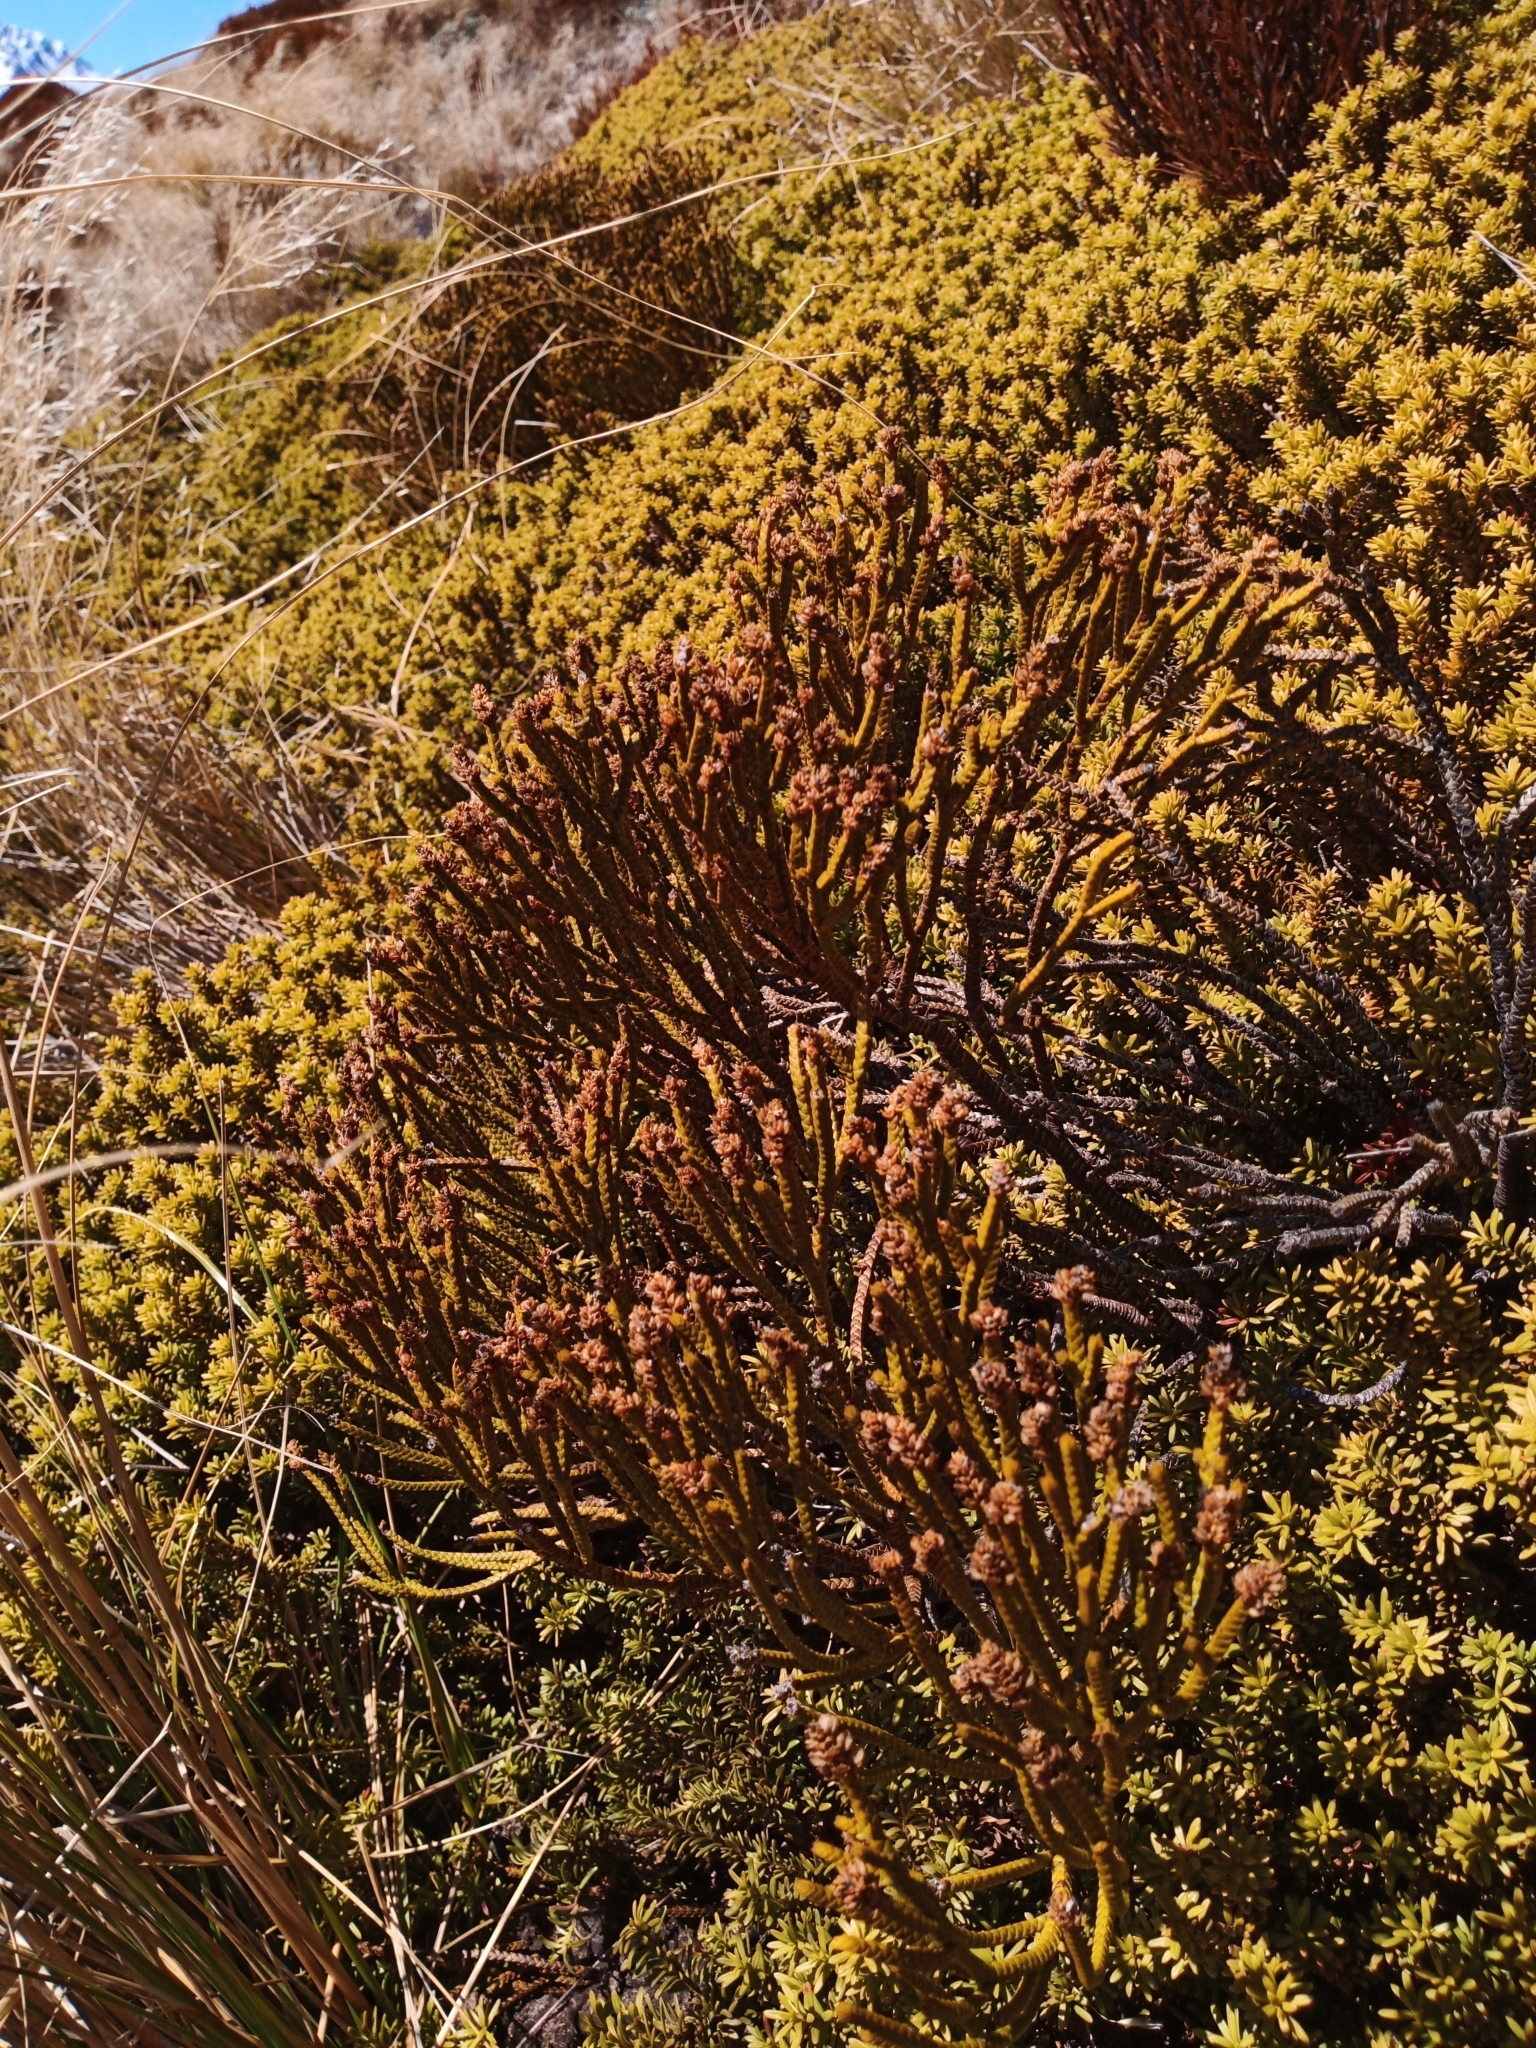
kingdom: Plantae
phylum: Tracheophyta
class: Magnoliopsida
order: Lamiales
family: Plantaginaceae
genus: Veronica
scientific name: Veronica lycopodioides
